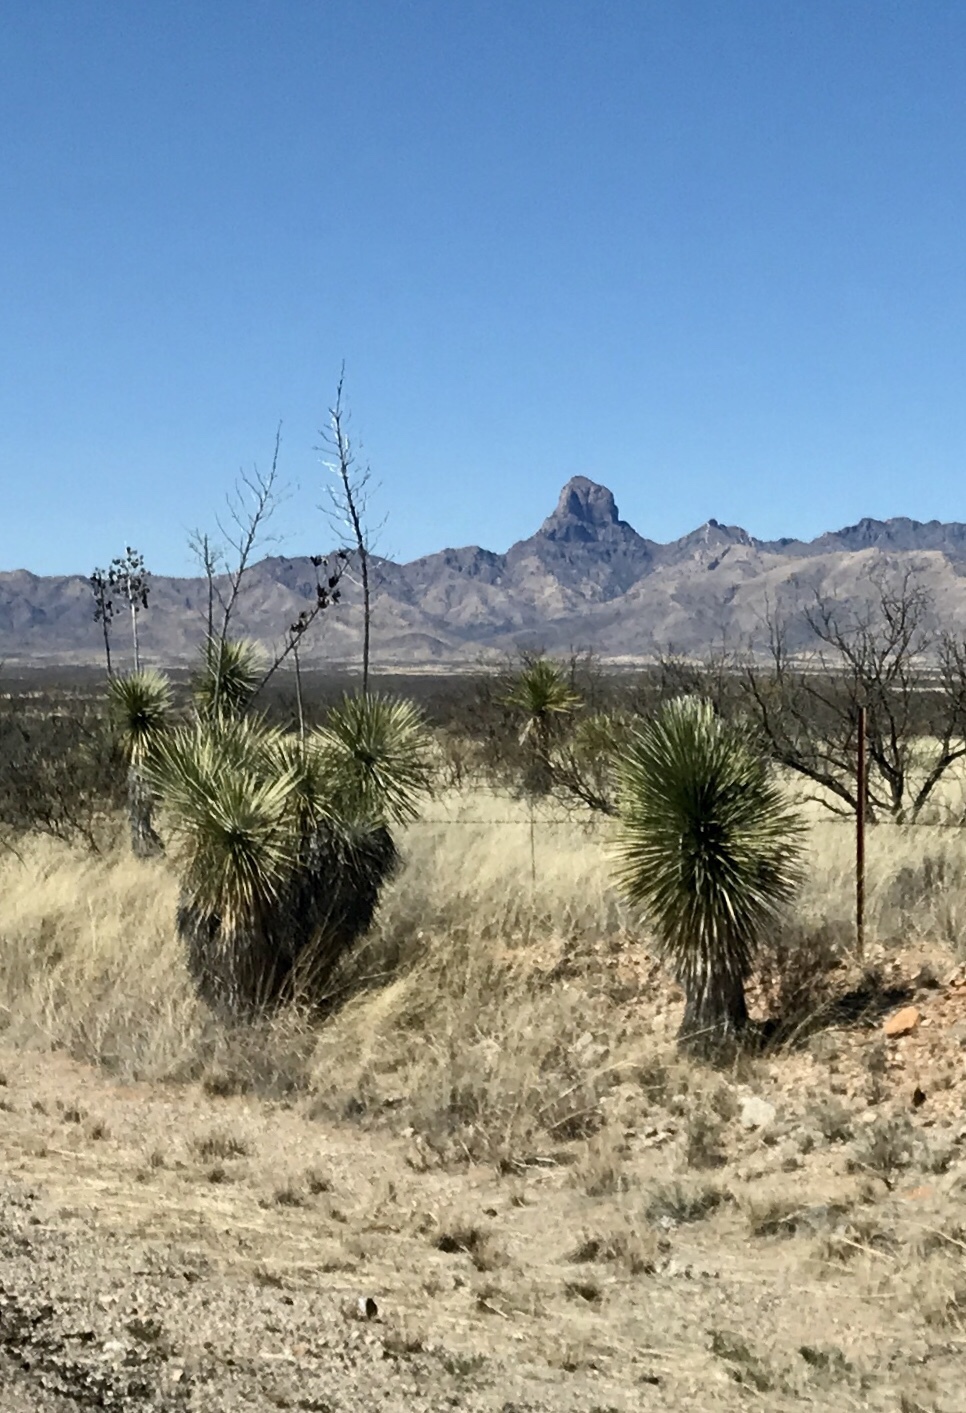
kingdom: Plantae
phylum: Tracheophyta
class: Liliopsida
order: Asparagales
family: Asparagaceae
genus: Yucca
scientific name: Yucca elata
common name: Palmella
